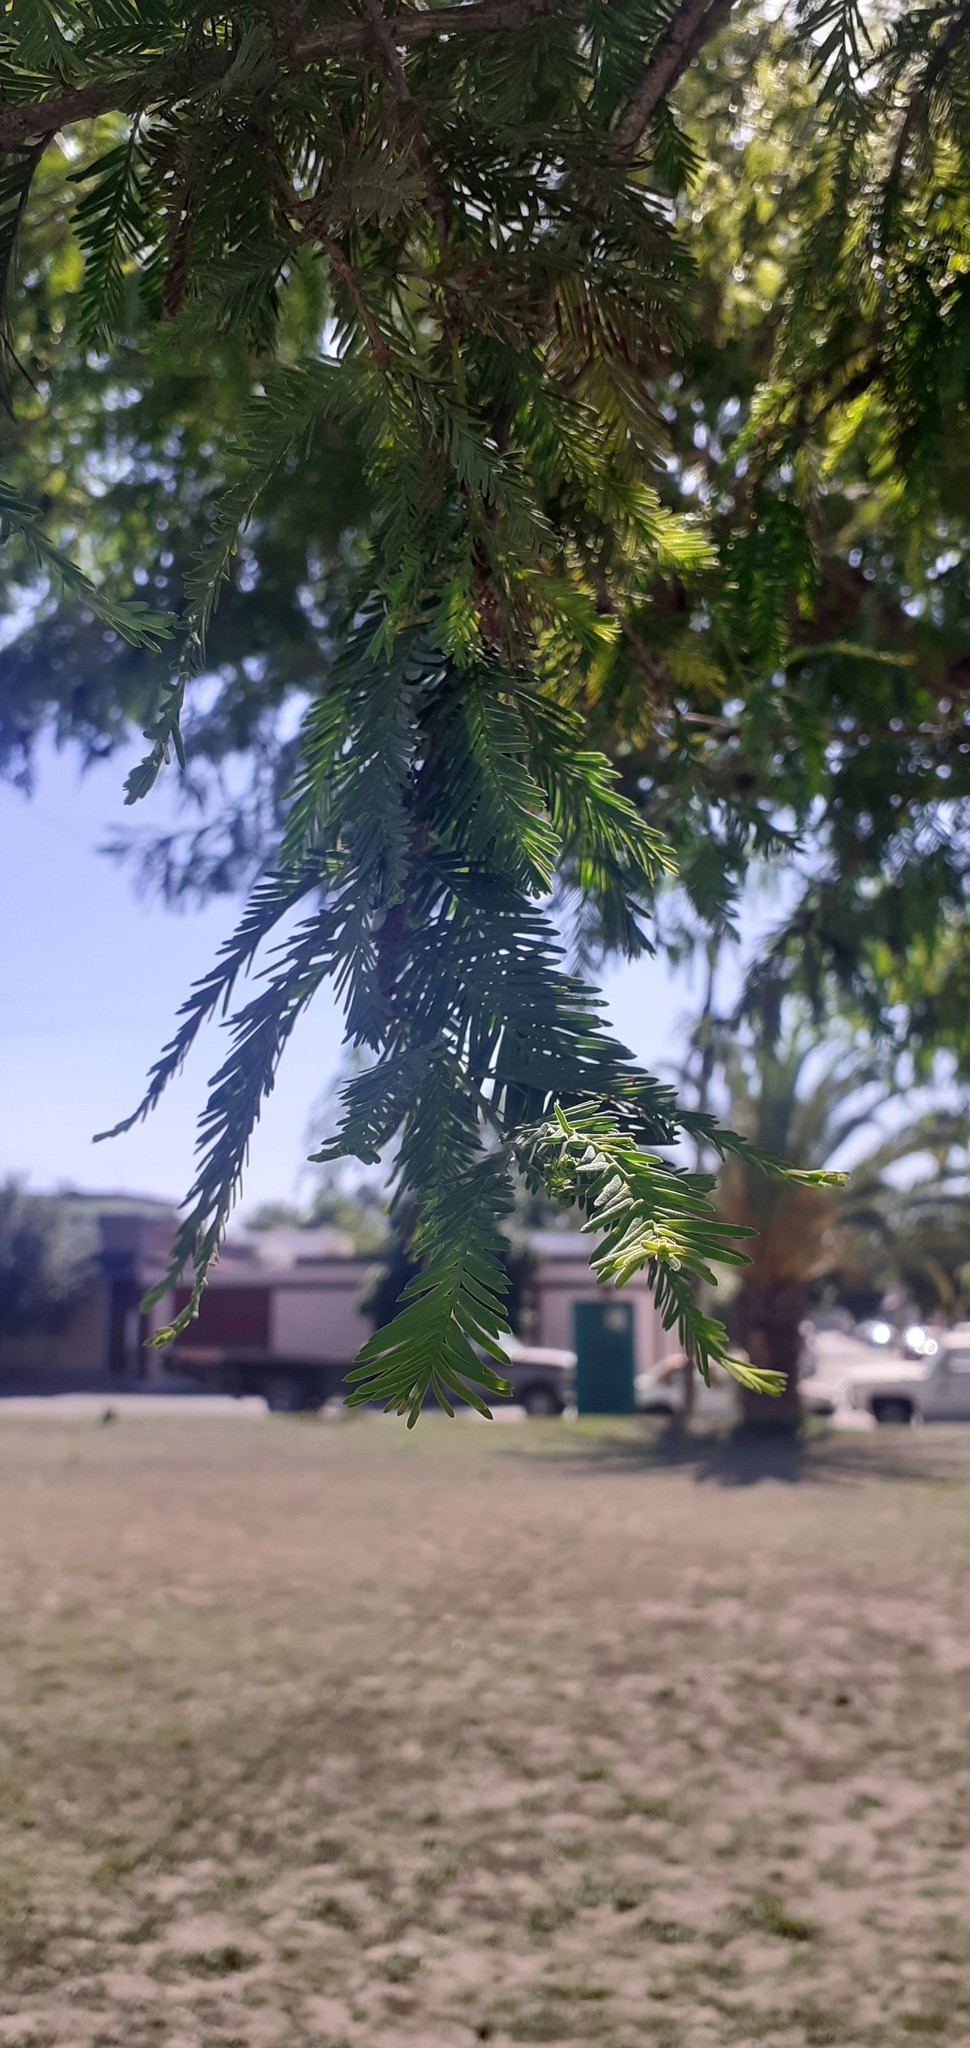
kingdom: Plantae
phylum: Tracheophyta
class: Pinopsida
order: Pinales
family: Cupressaceae
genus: Taxodium
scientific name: Taxodium mucronatum
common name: Montezume bald cypress
